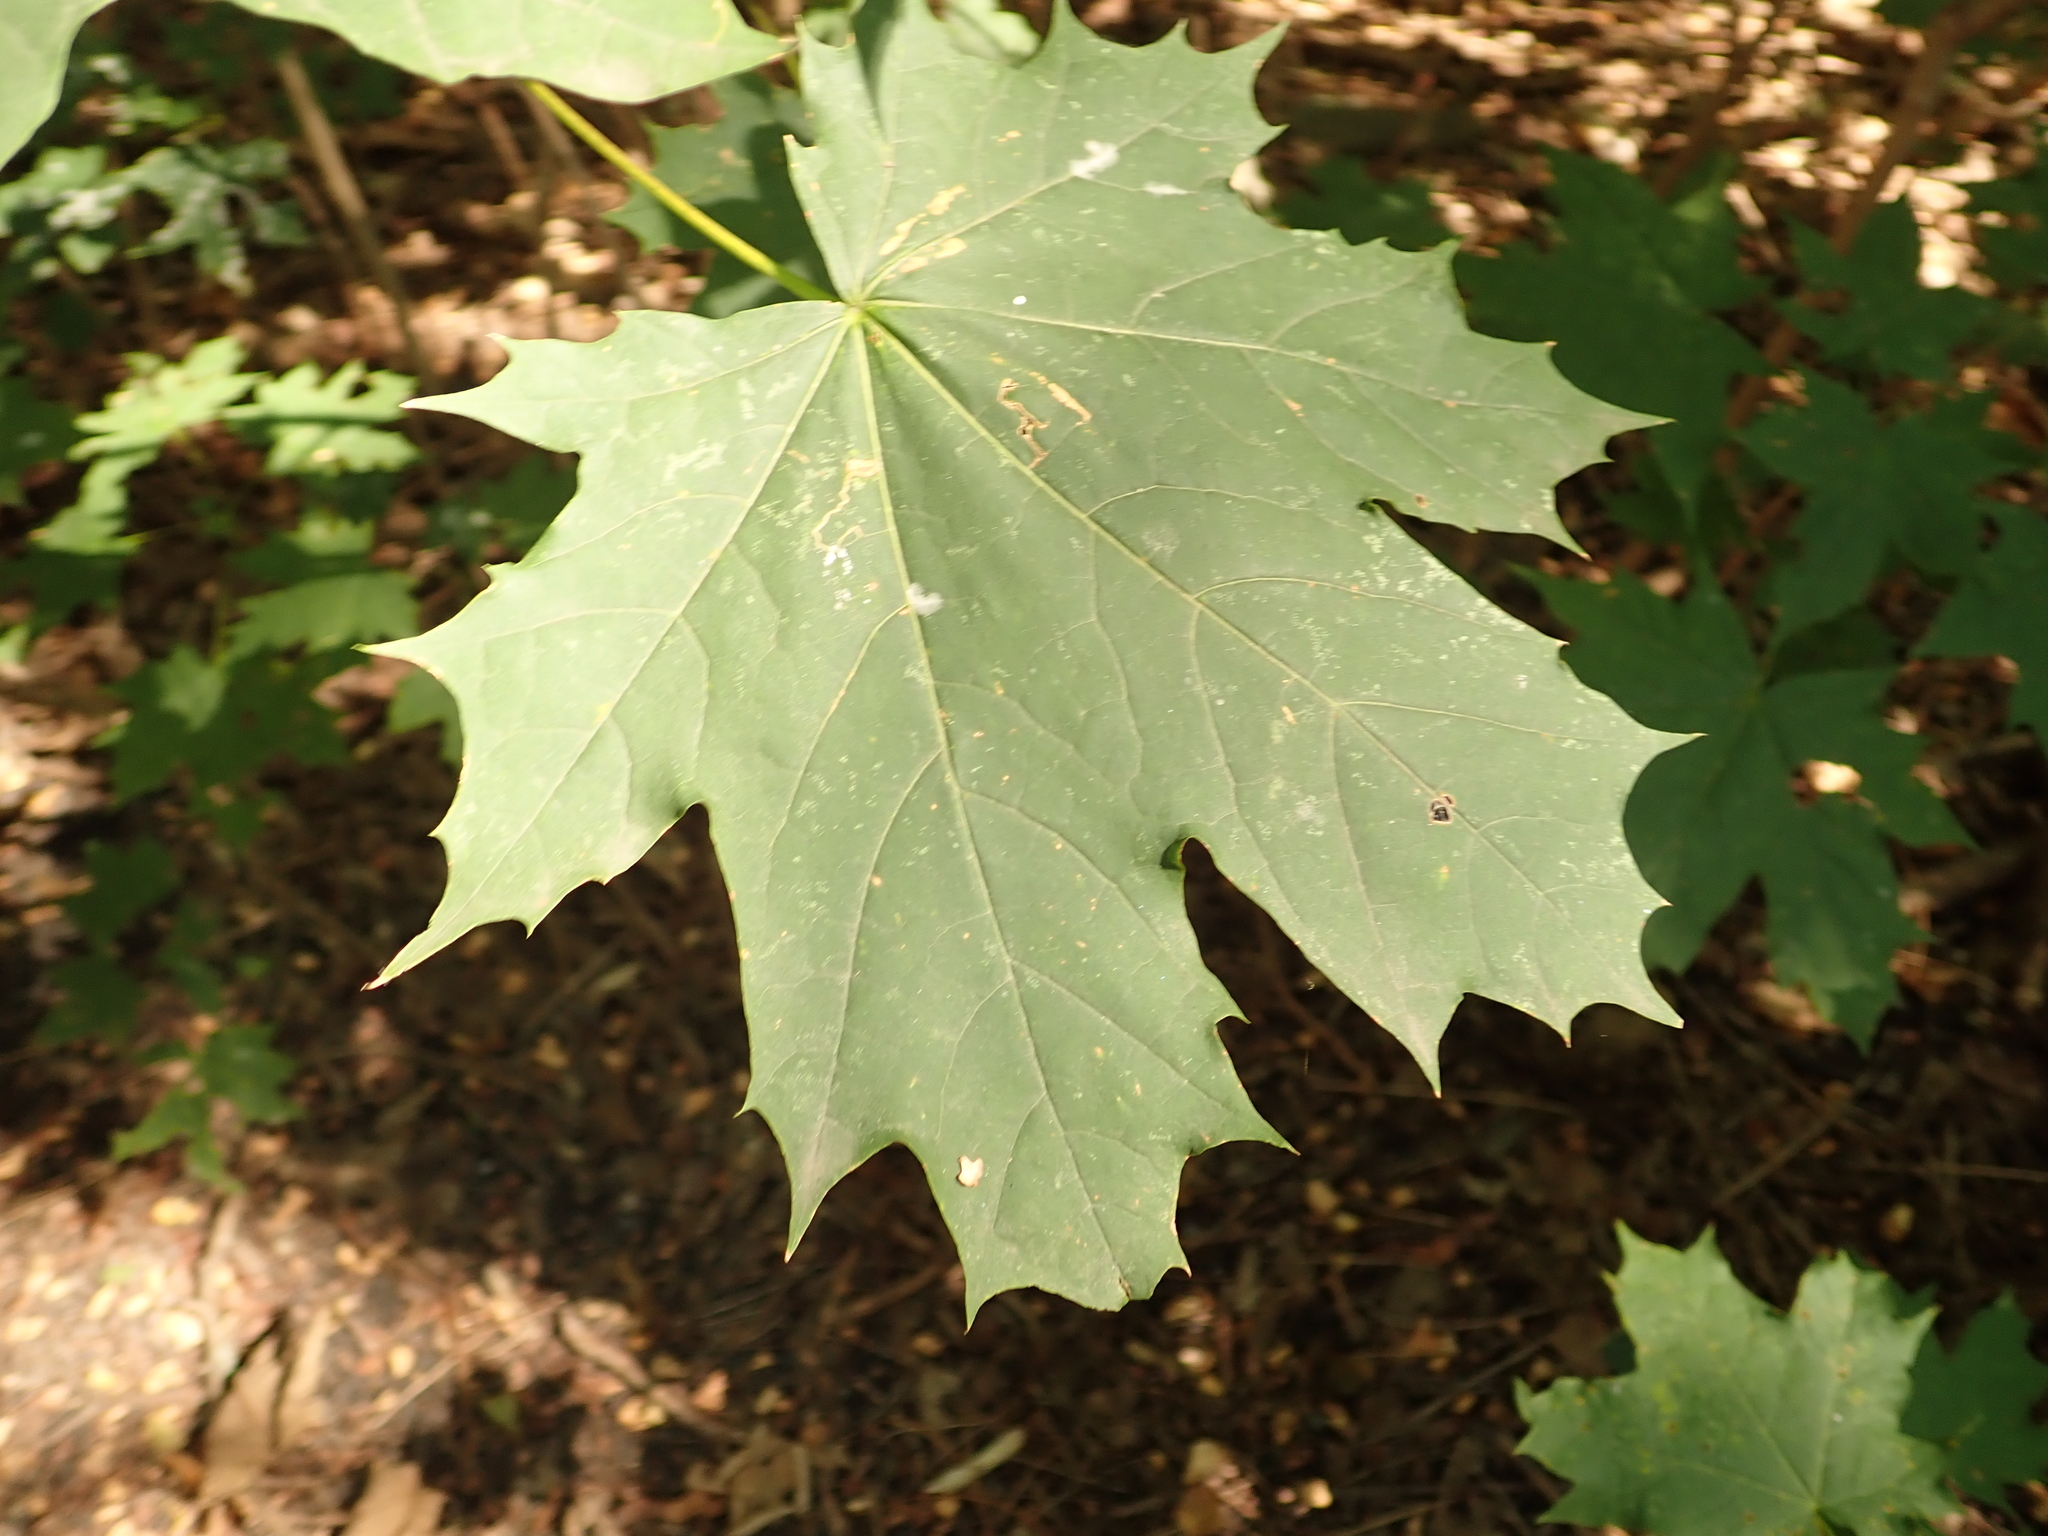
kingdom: Plantae
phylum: Tracheophyta
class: Magnoliopsida
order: Sapindales
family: Sapindaceae
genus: Acer
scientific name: Acer platanoides
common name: Norway maple
